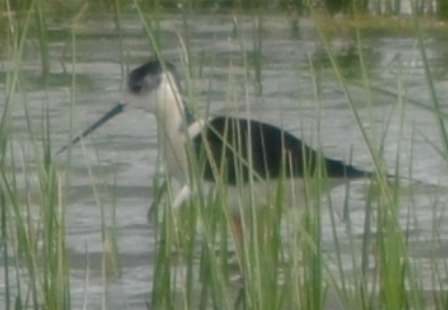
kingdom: Animalia
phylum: Chordata
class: Aves
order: Charadriiformes
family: Recurvirostridae
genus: Himantopus
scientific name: Himantopus himantopus
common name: Black-winged stilt
